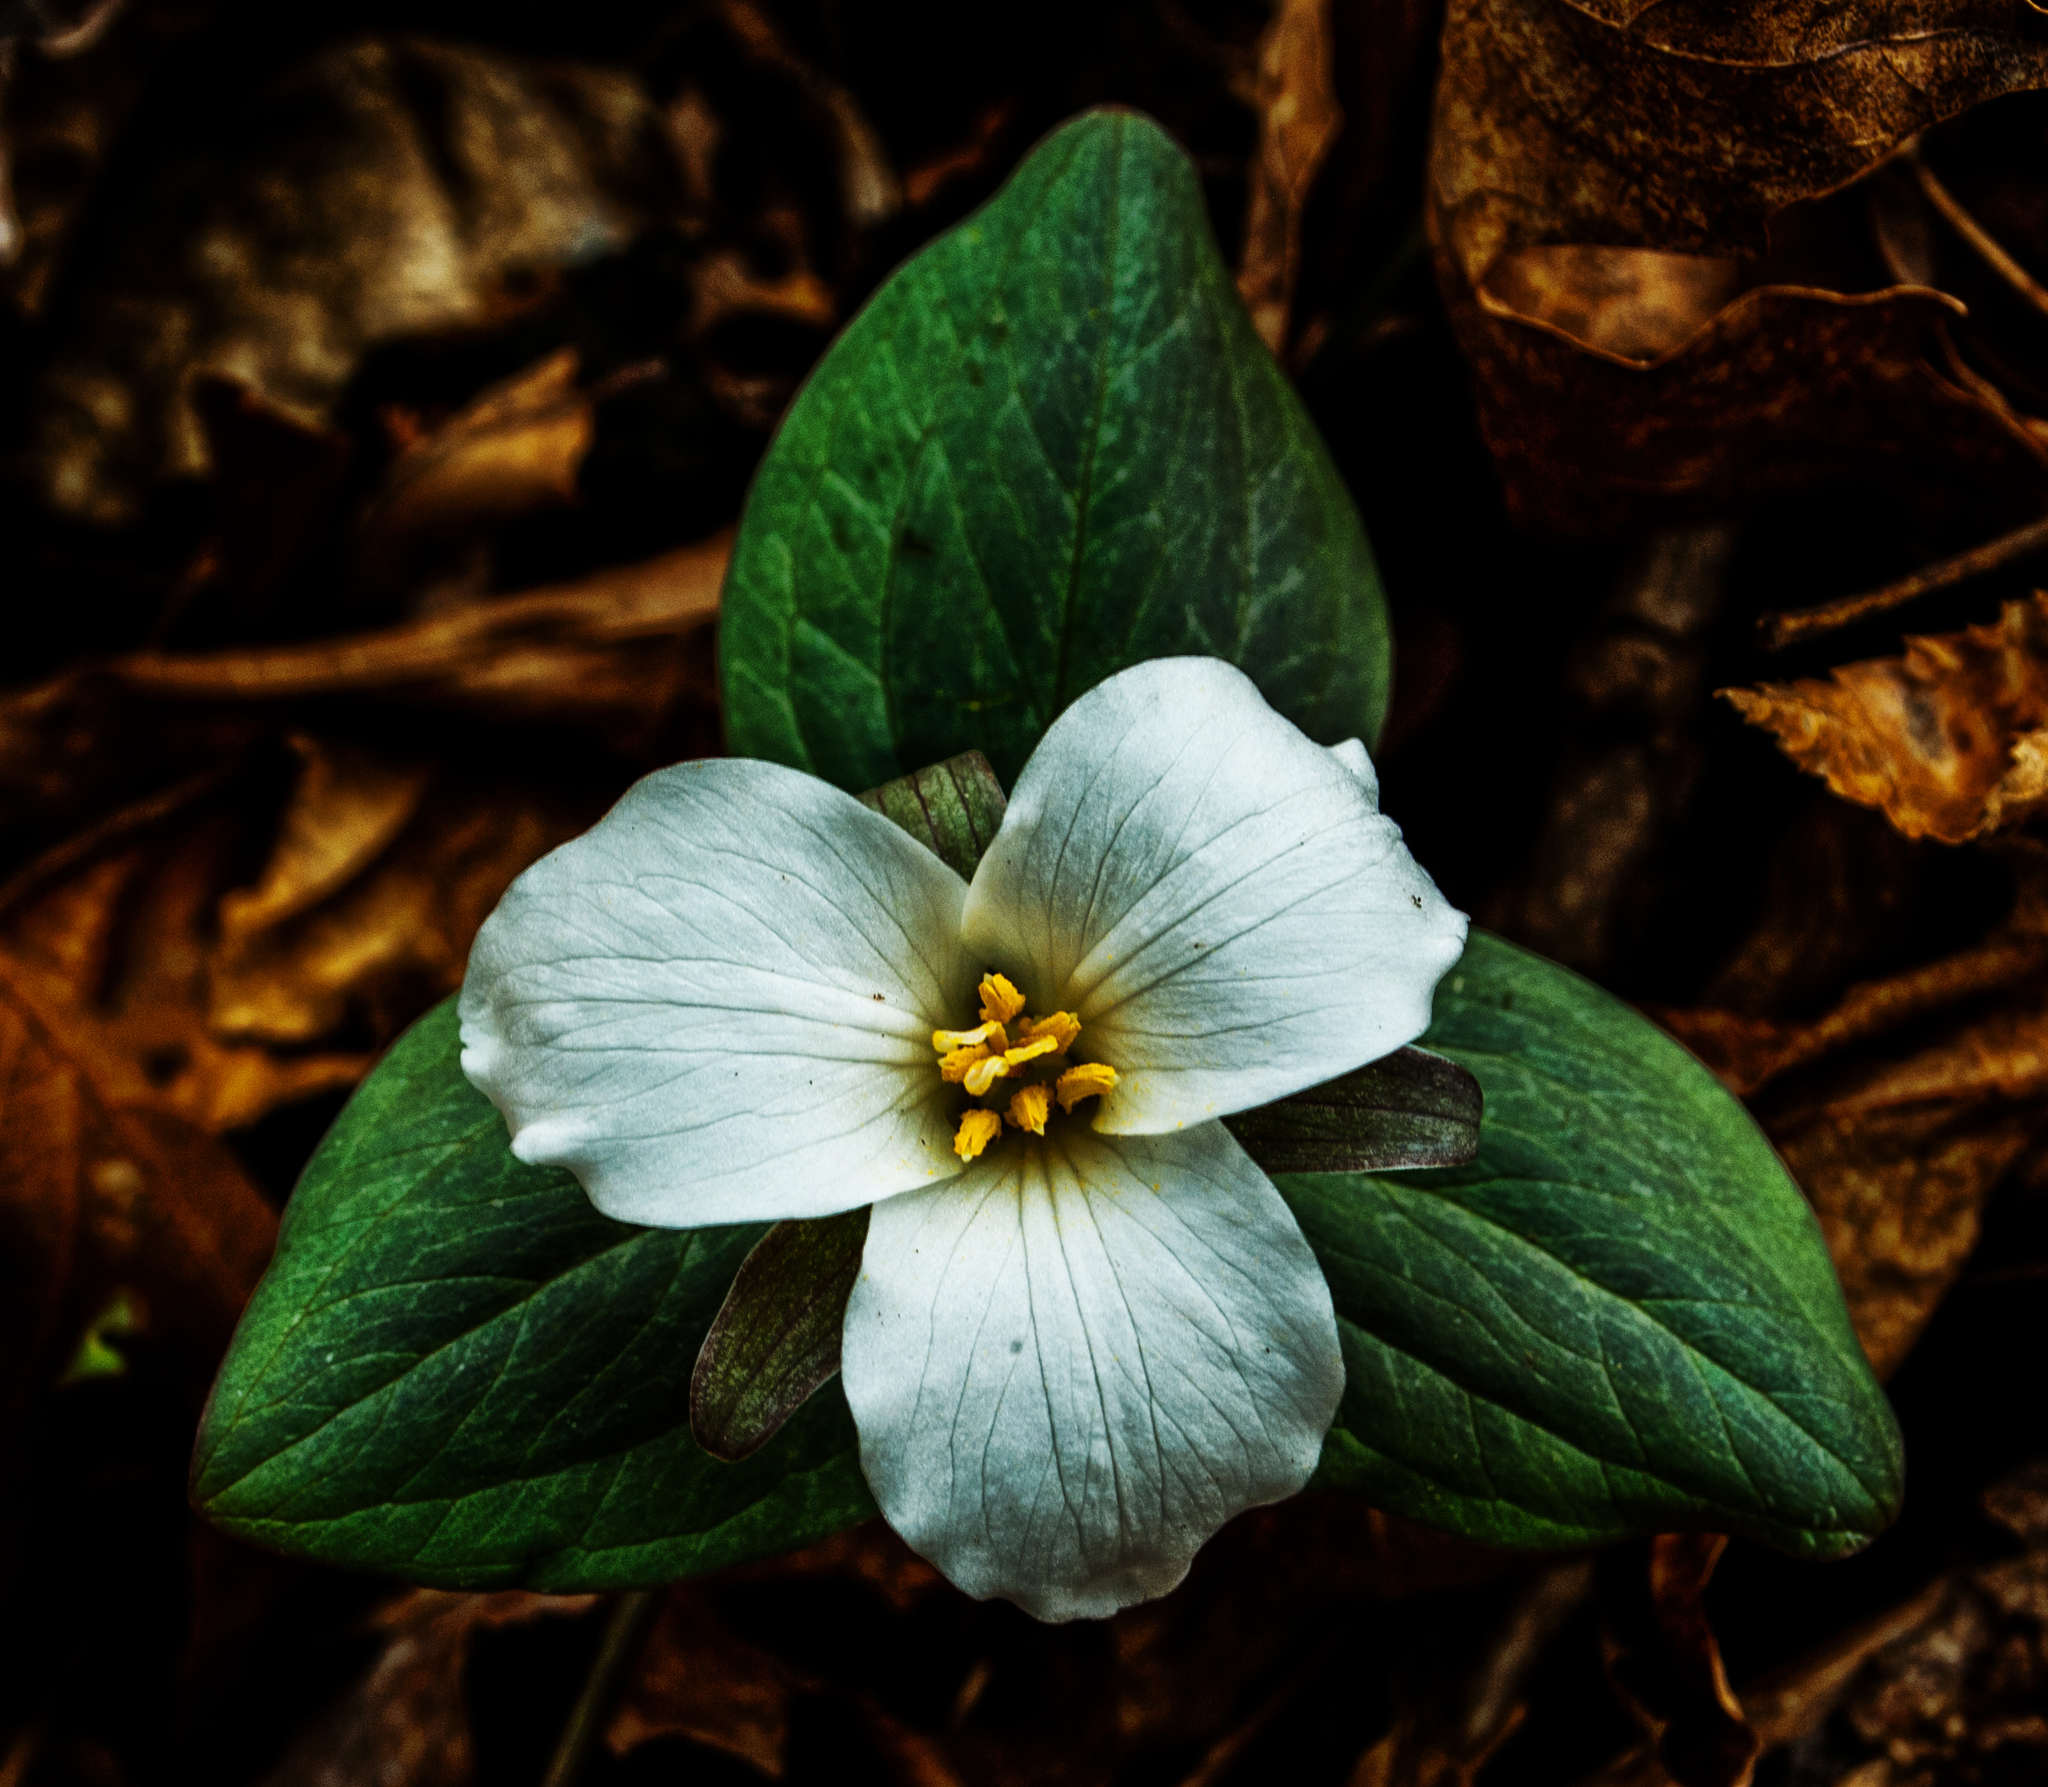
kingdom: Plantae
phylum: Tracheophyta
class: Liliopsida
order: Liliales
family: Melanthiaceae
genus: Trillium
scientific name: Trillium nivale
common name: Dwarf white trillium
